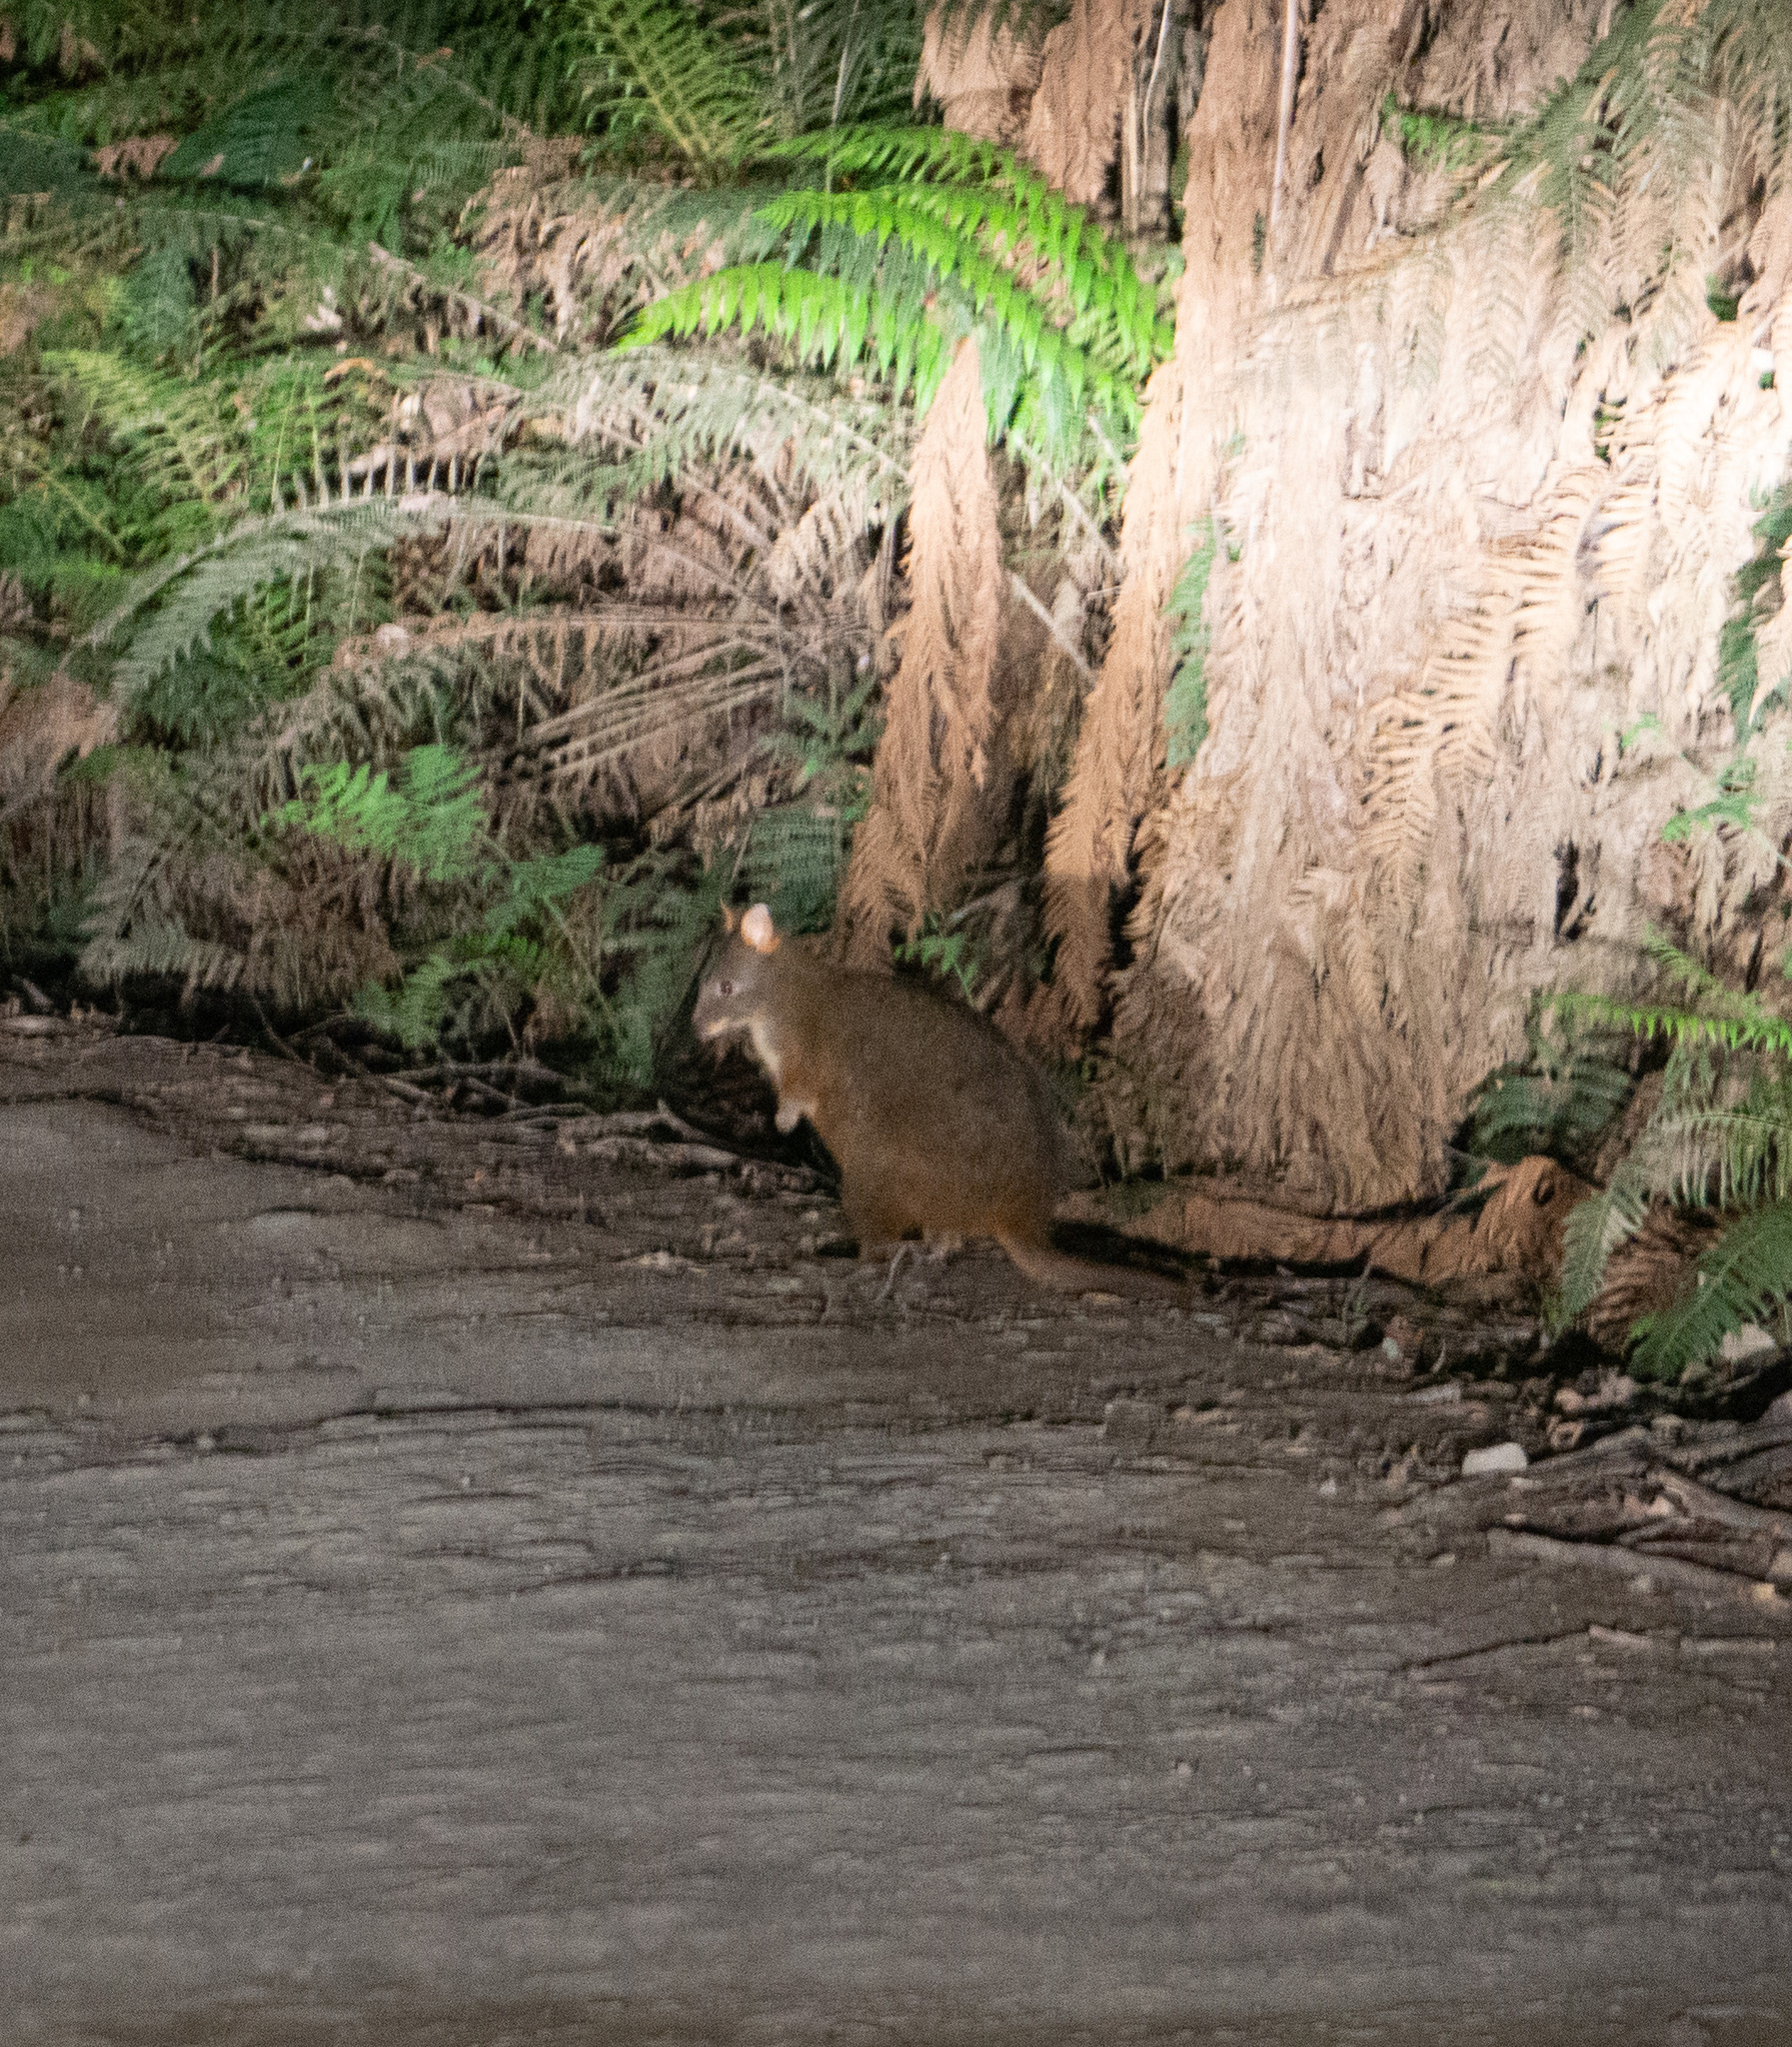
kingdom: Animalia
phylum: Chordata
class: Mammalia
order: Diprotodontia
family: Macropodidae
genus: Thylogale
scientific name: Thylogale billardierii
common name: Tasmanian pademelon
